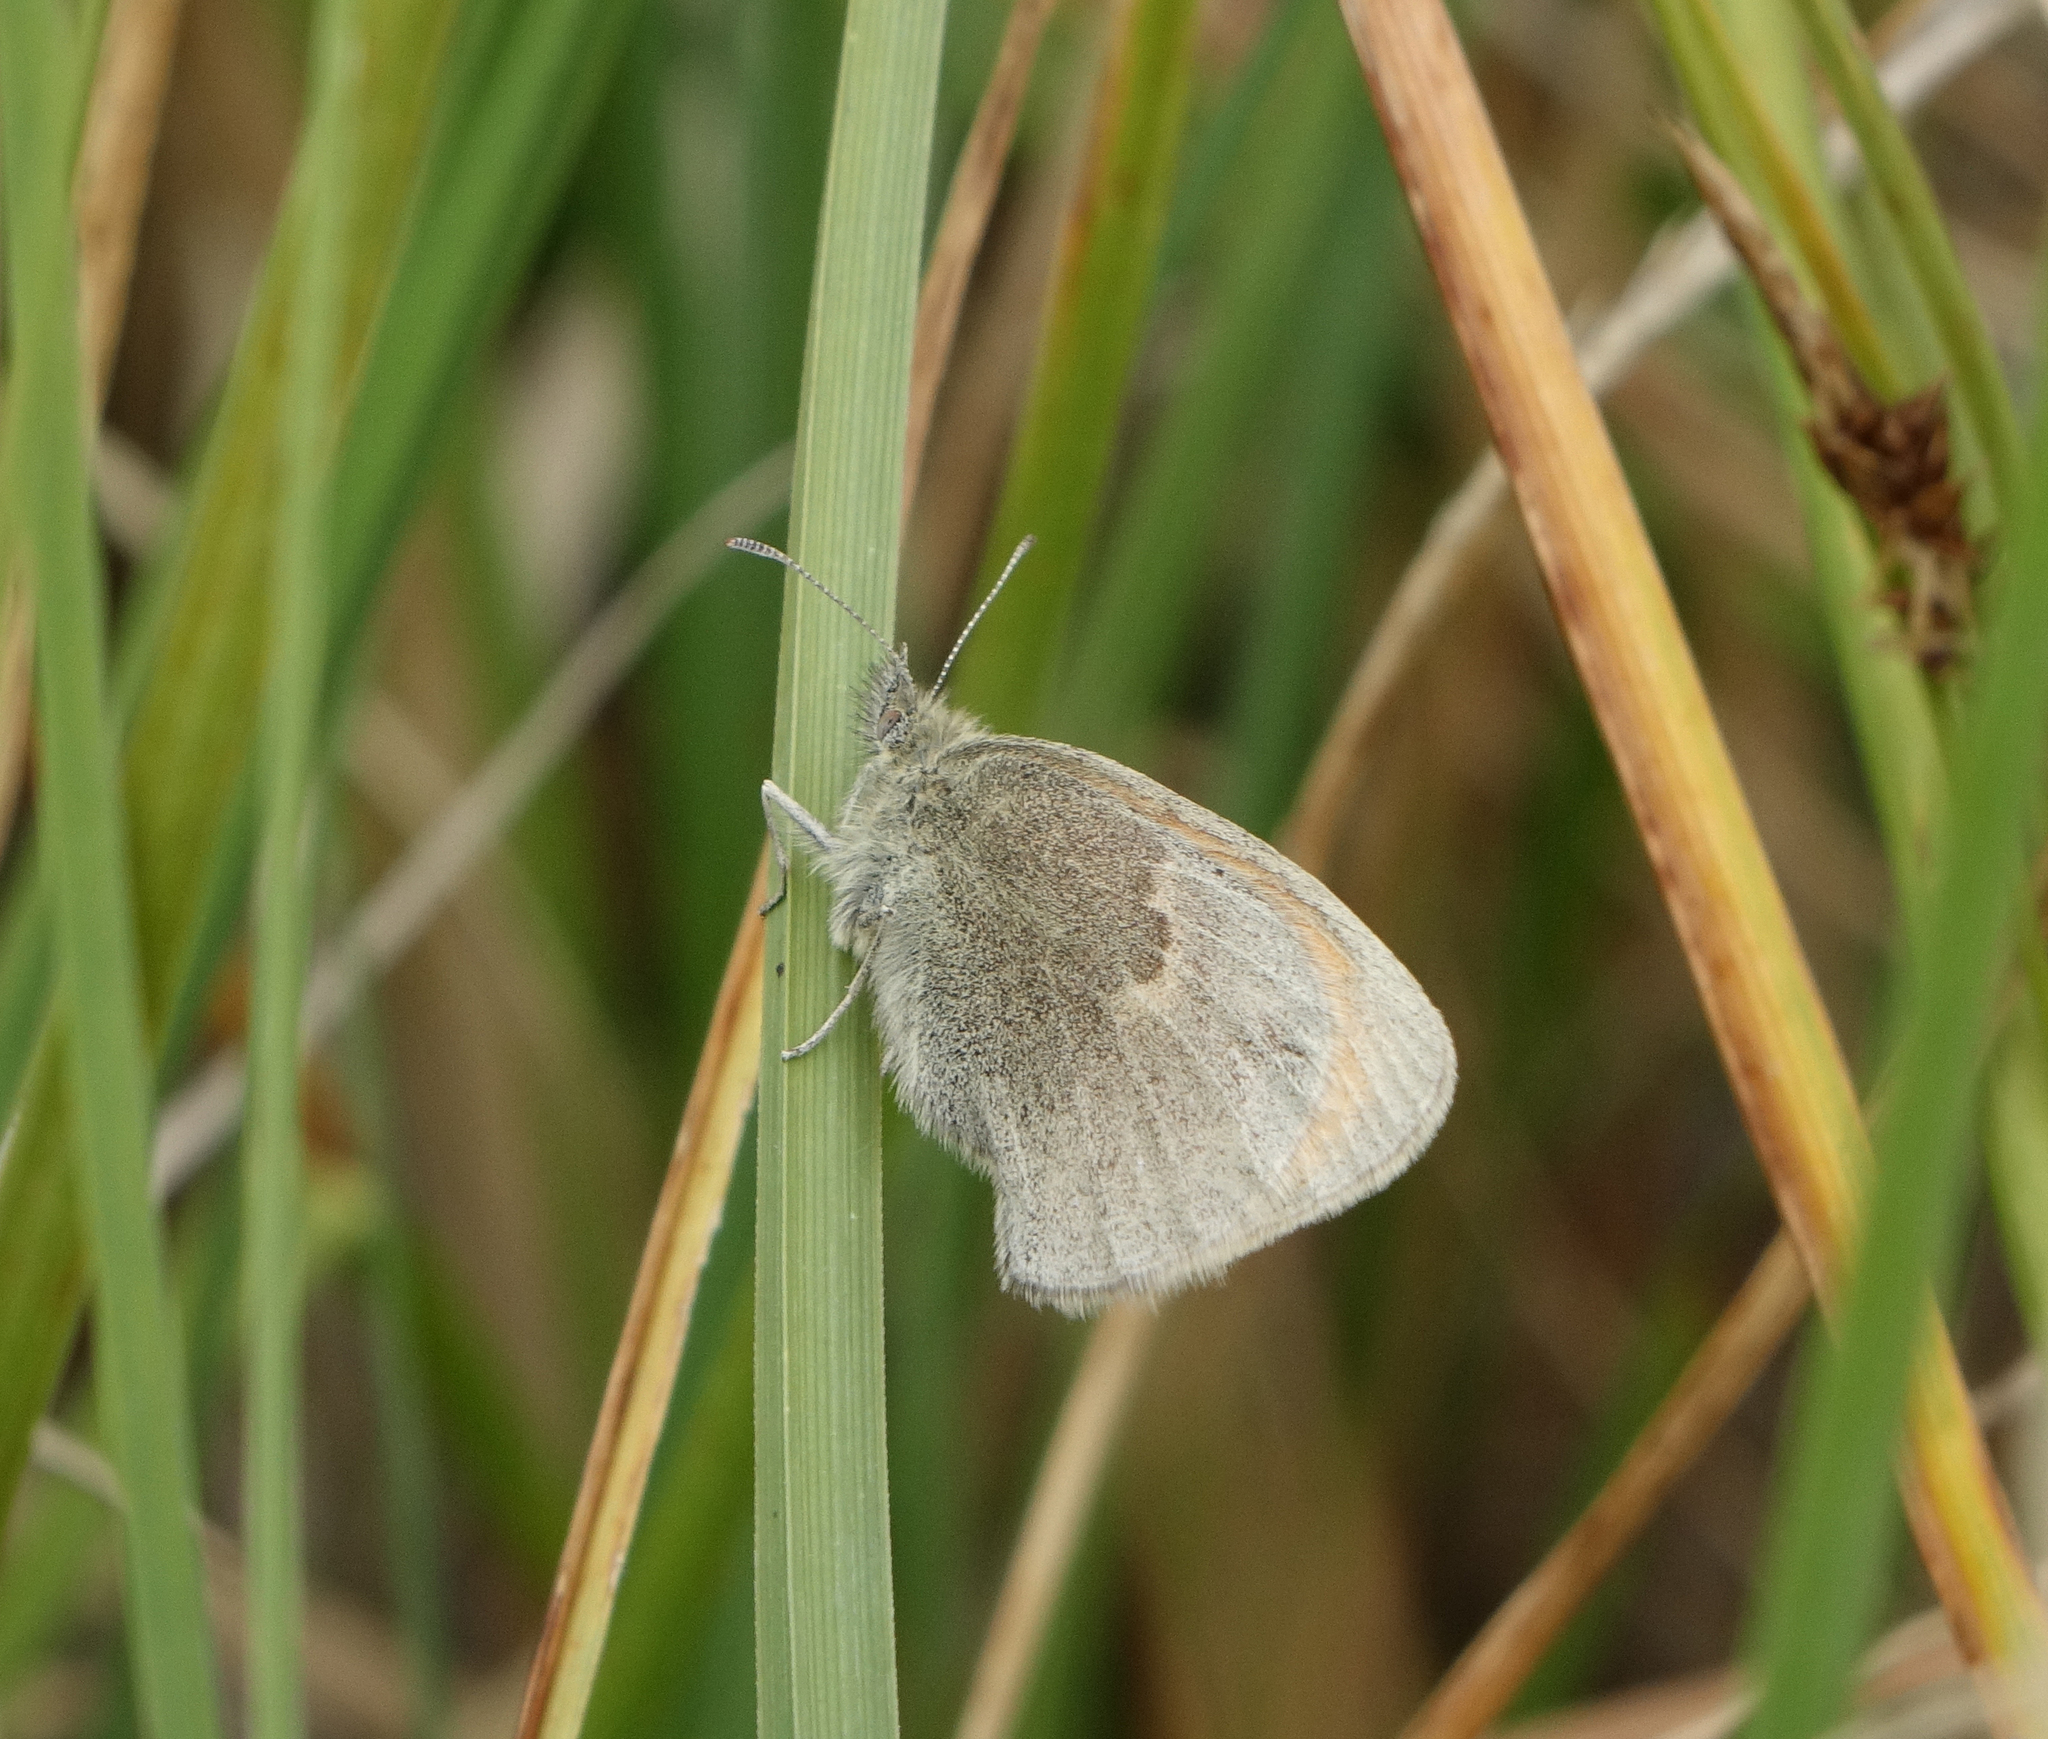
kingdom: Animalia
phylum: Arthropoda
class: Insecta
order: Lepidoptera
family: Nymphalidae
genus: Coenonympha
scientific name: Coenonympha pamphilus
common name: Small heath
